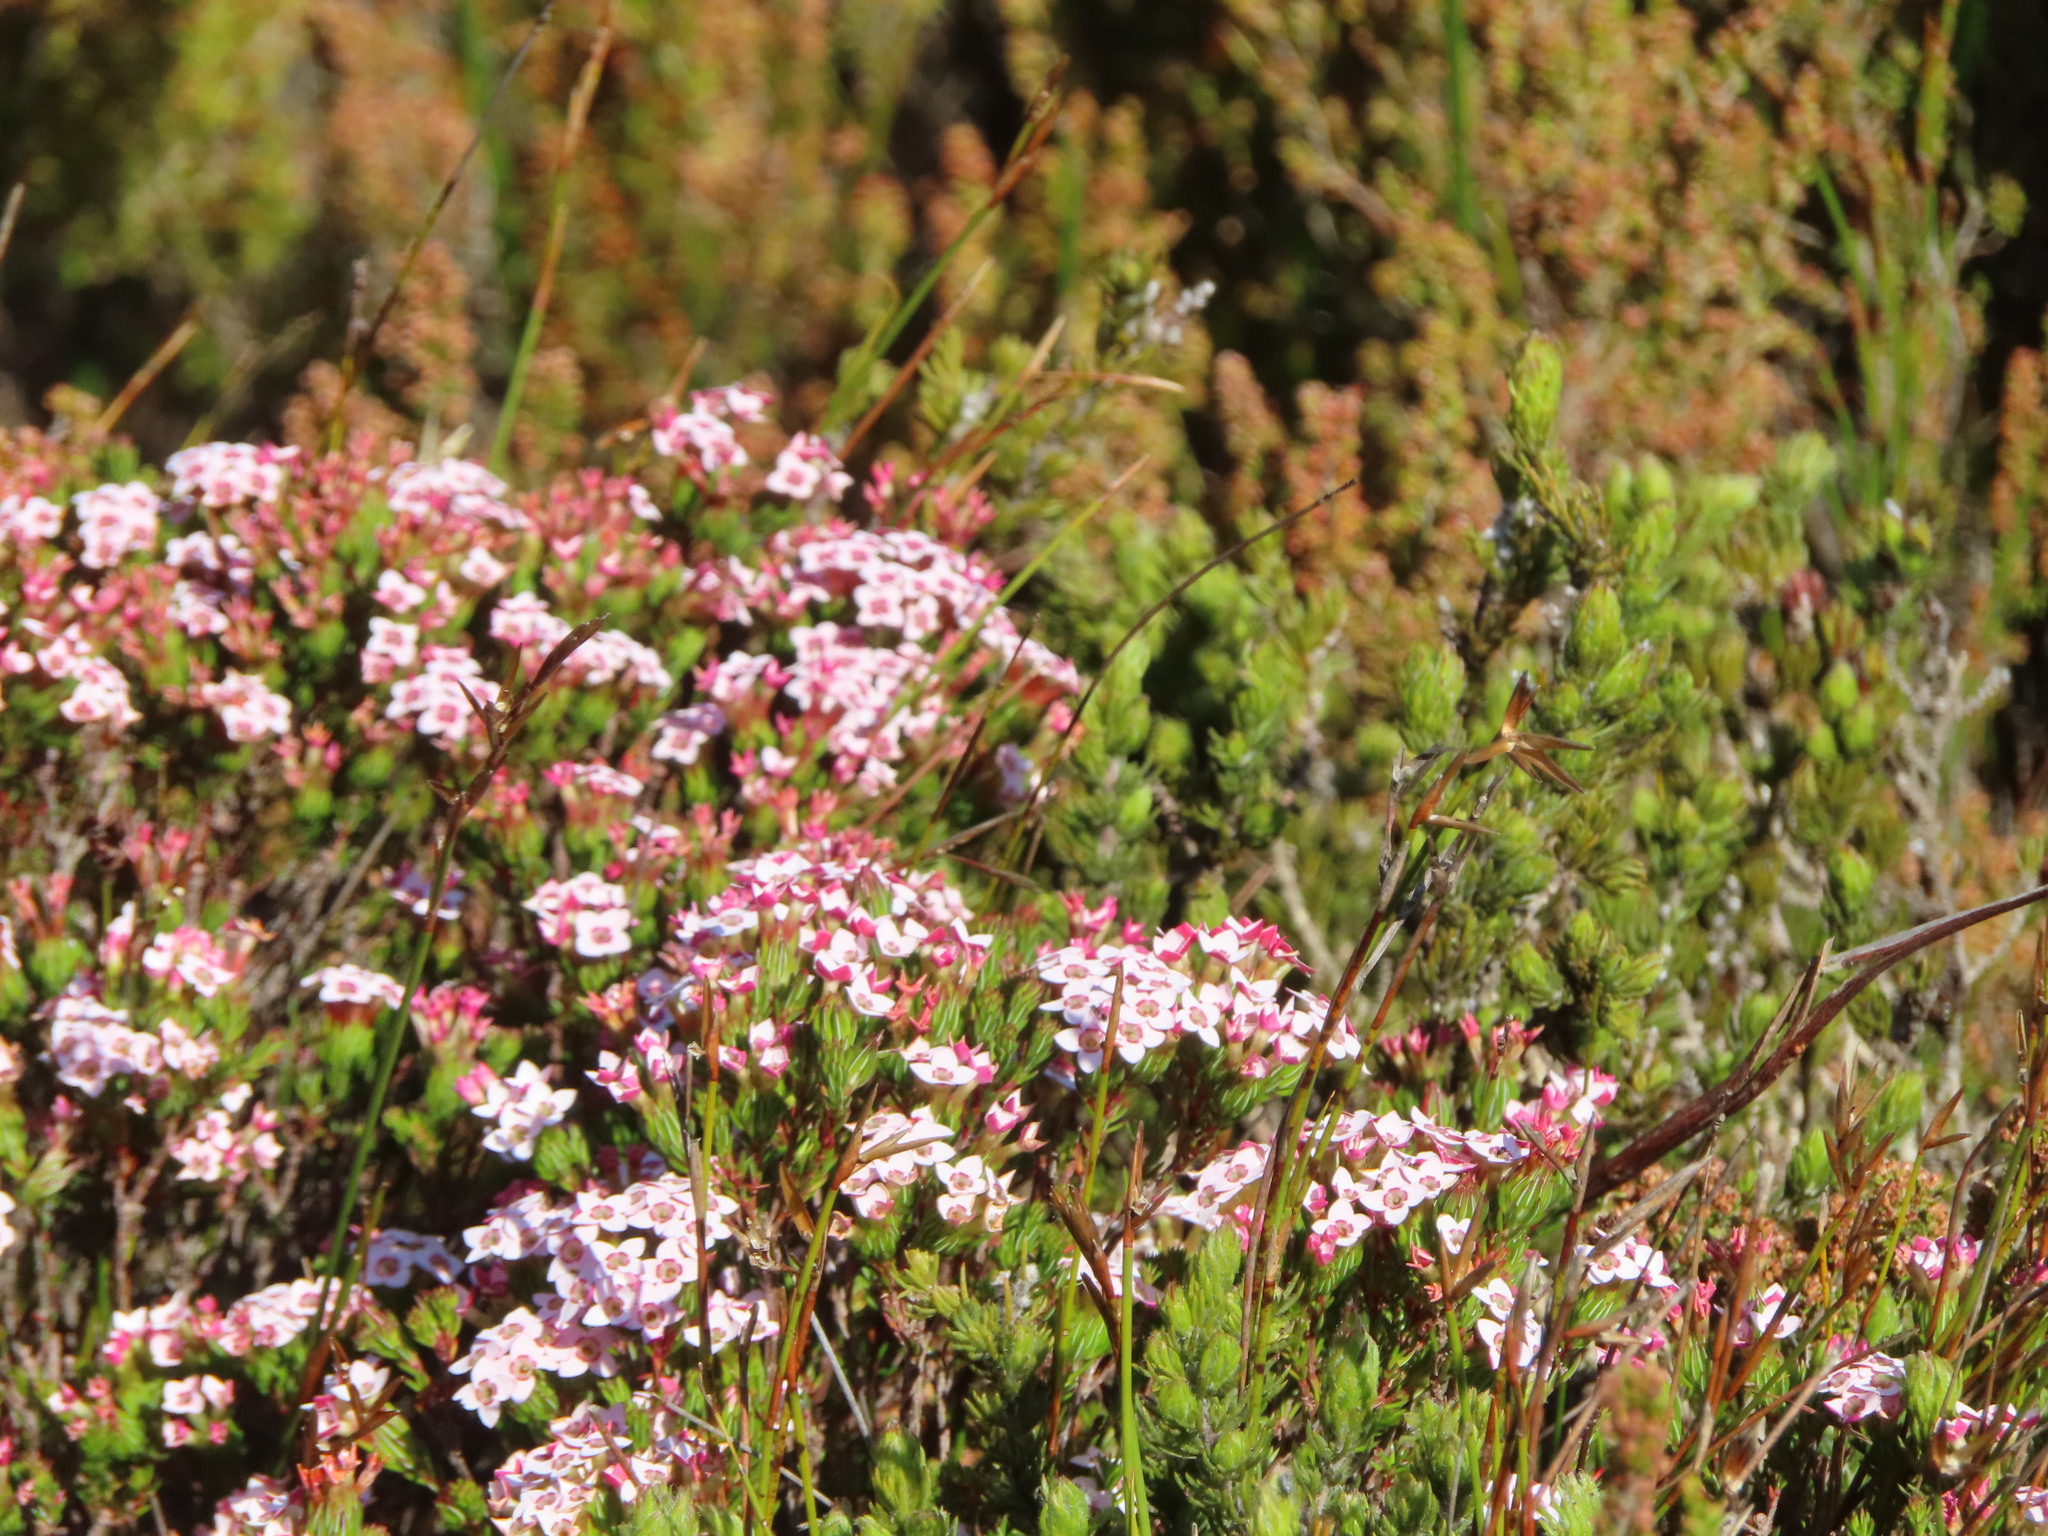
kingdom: Plantae
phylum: Tracheophyta
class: Magnoliopsida
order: Ericales
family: Ericaceae
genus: Erica
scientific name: Erica fastigiata
